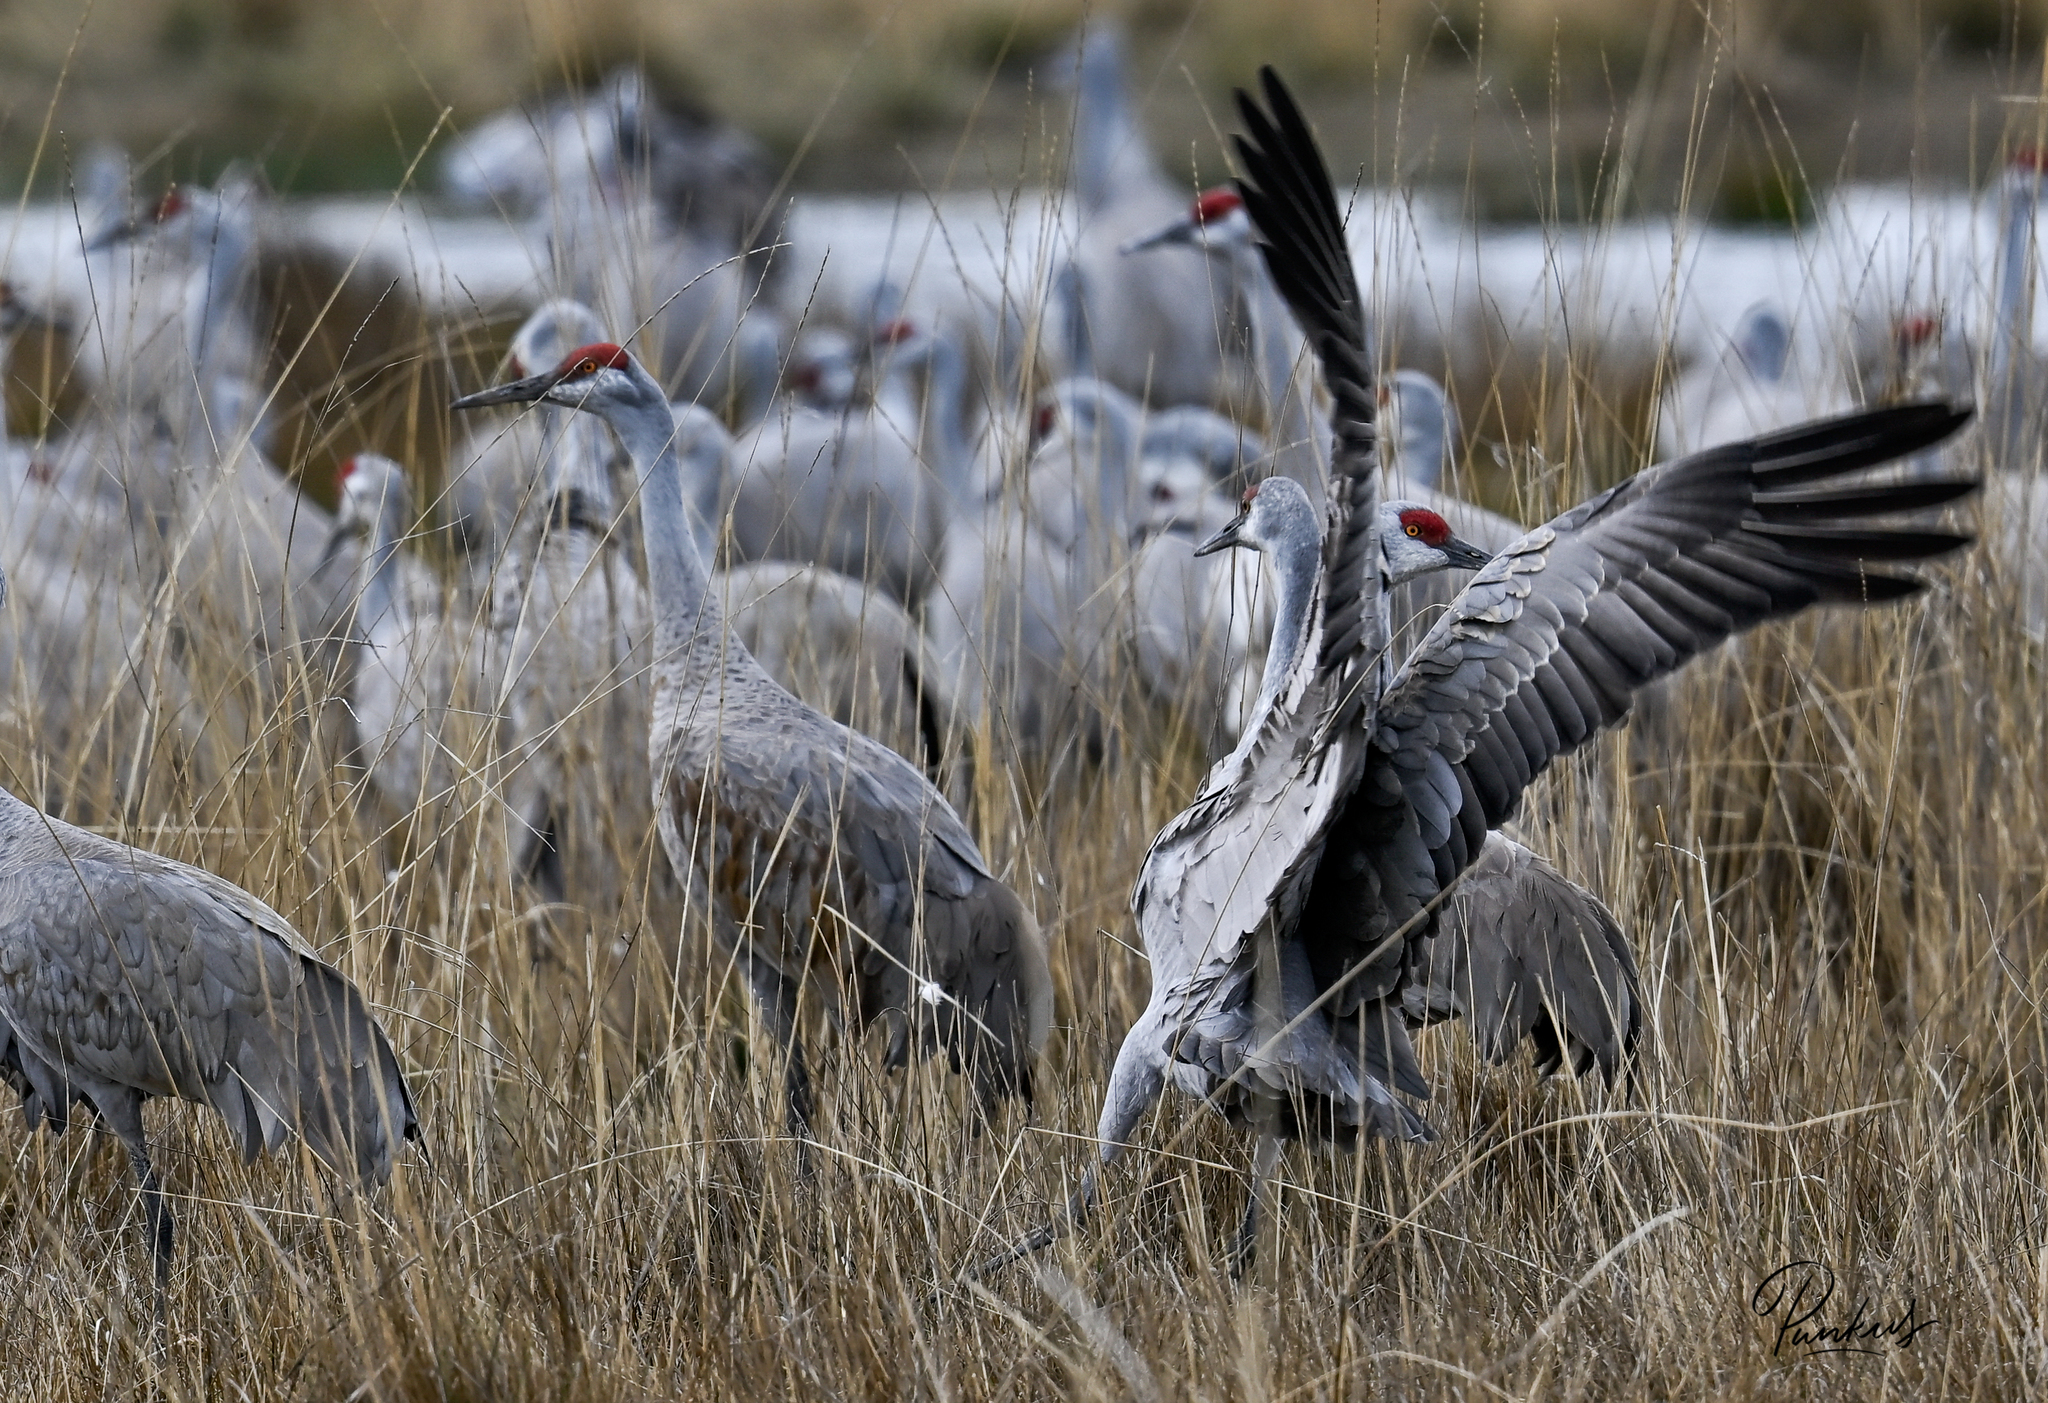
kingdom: Animalia
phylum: Chordata
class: Aves
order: Gruiformes
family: Gruidae
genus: Grus
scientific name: Grus canadensis
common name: Sandhill crane
